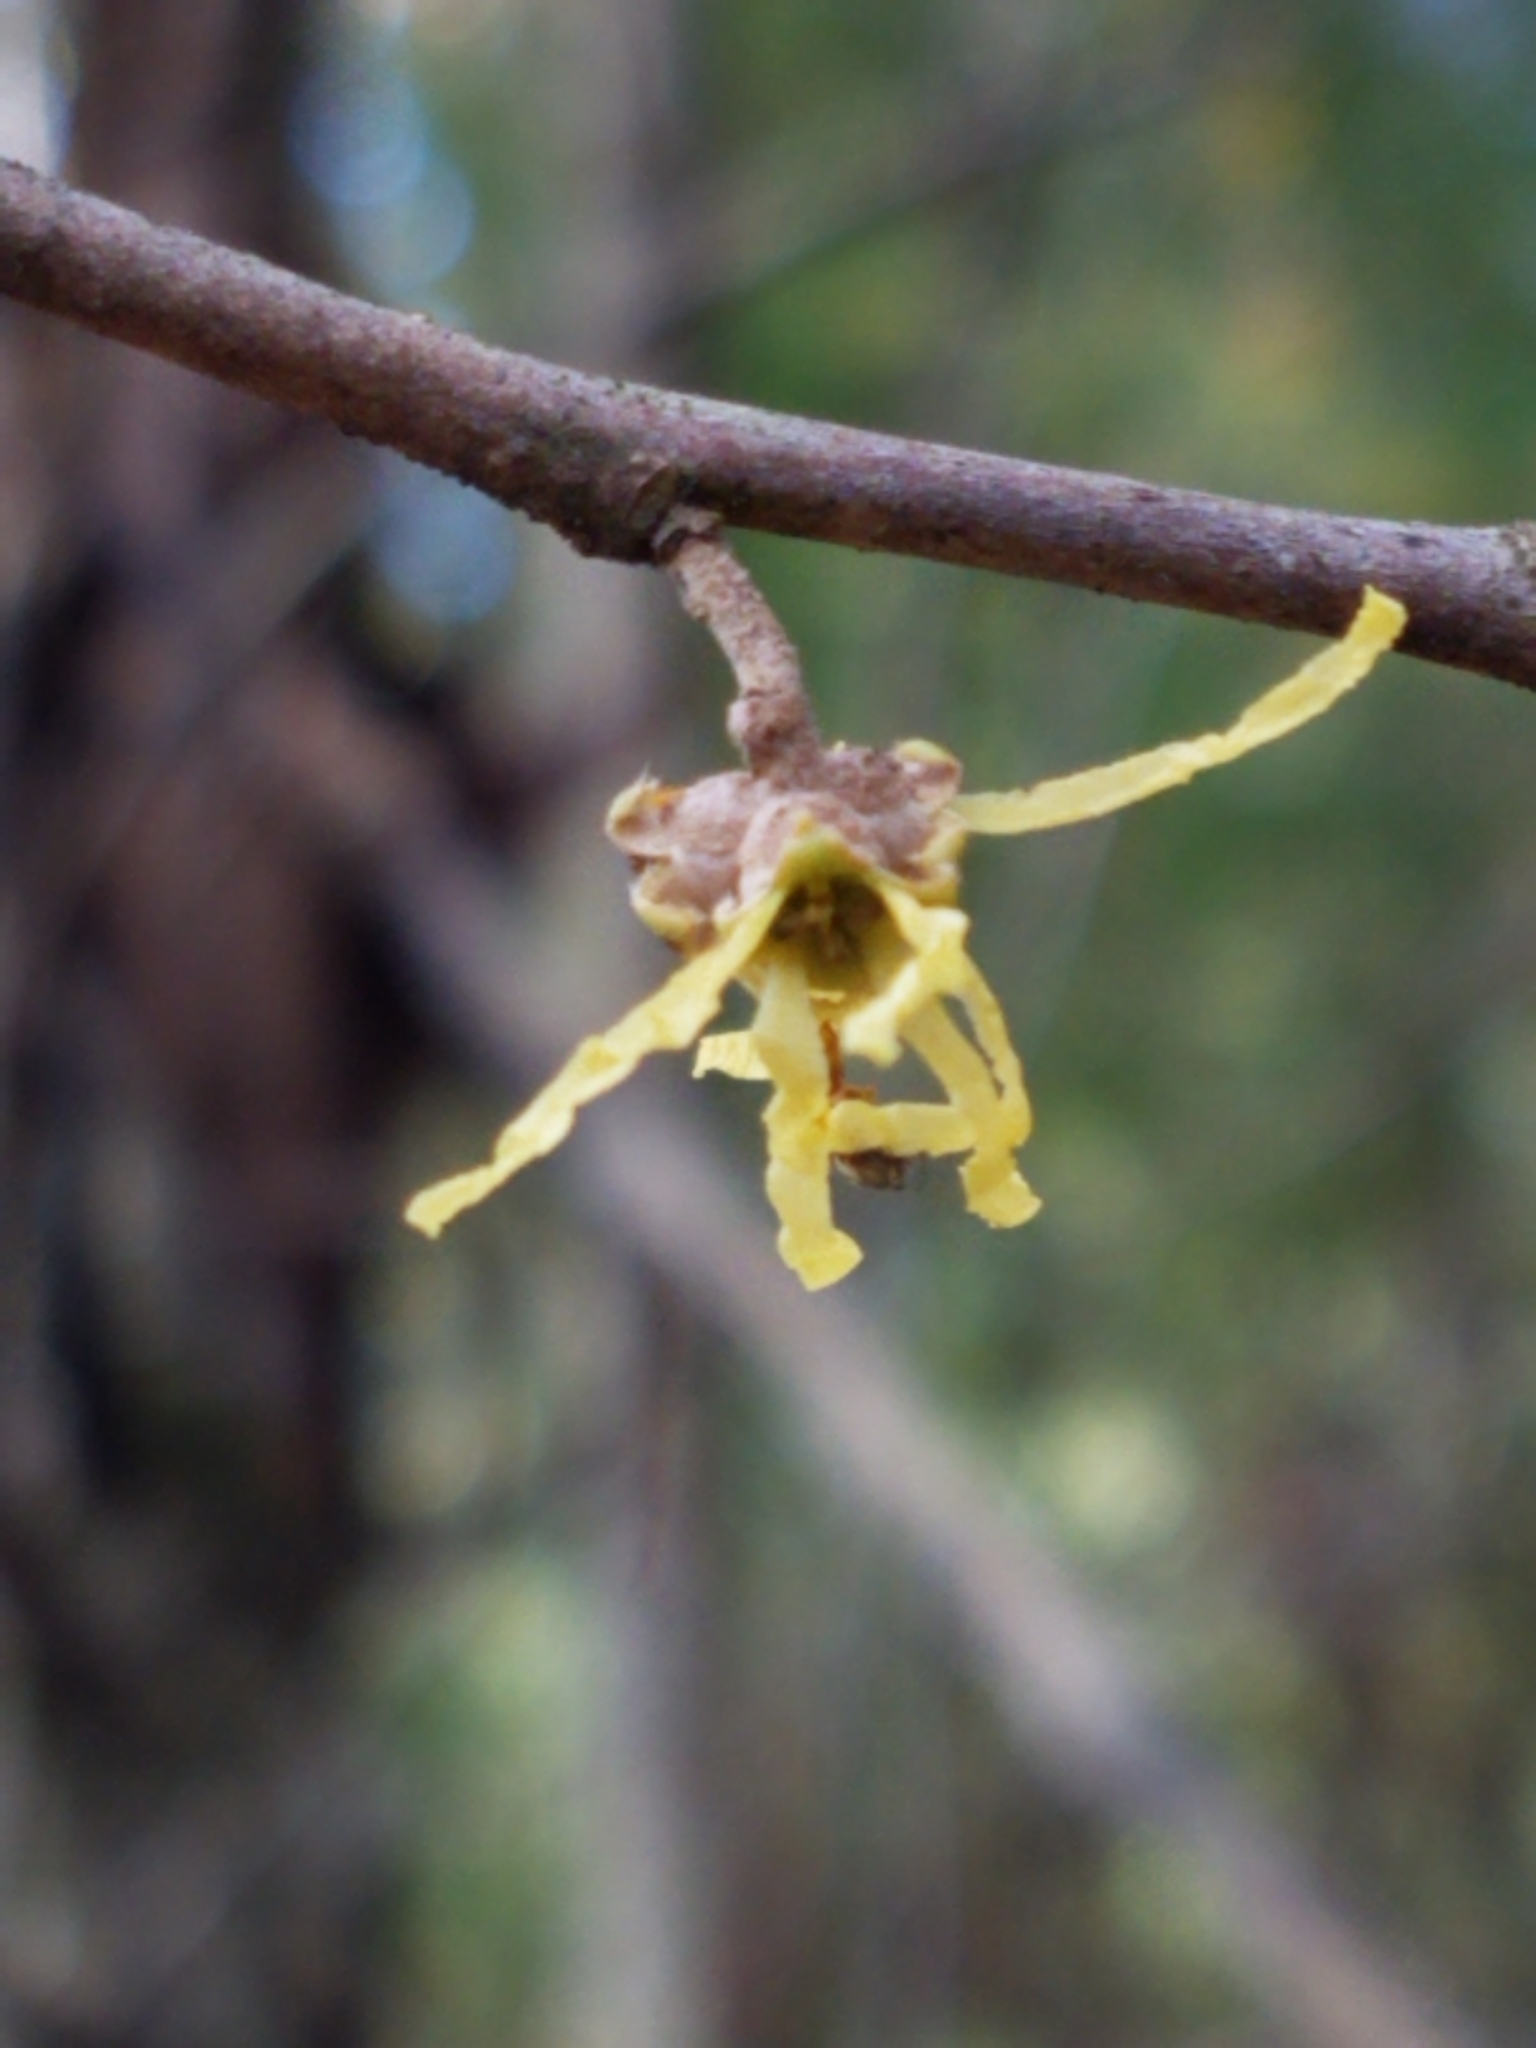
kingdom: Plantae
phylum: Tracheophyta
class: Magnoliopsida
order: Saxifragales
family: Hamamelidaceae
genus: Hamamelis
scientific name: Hamamelis virginiana
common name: Witch-hazel
